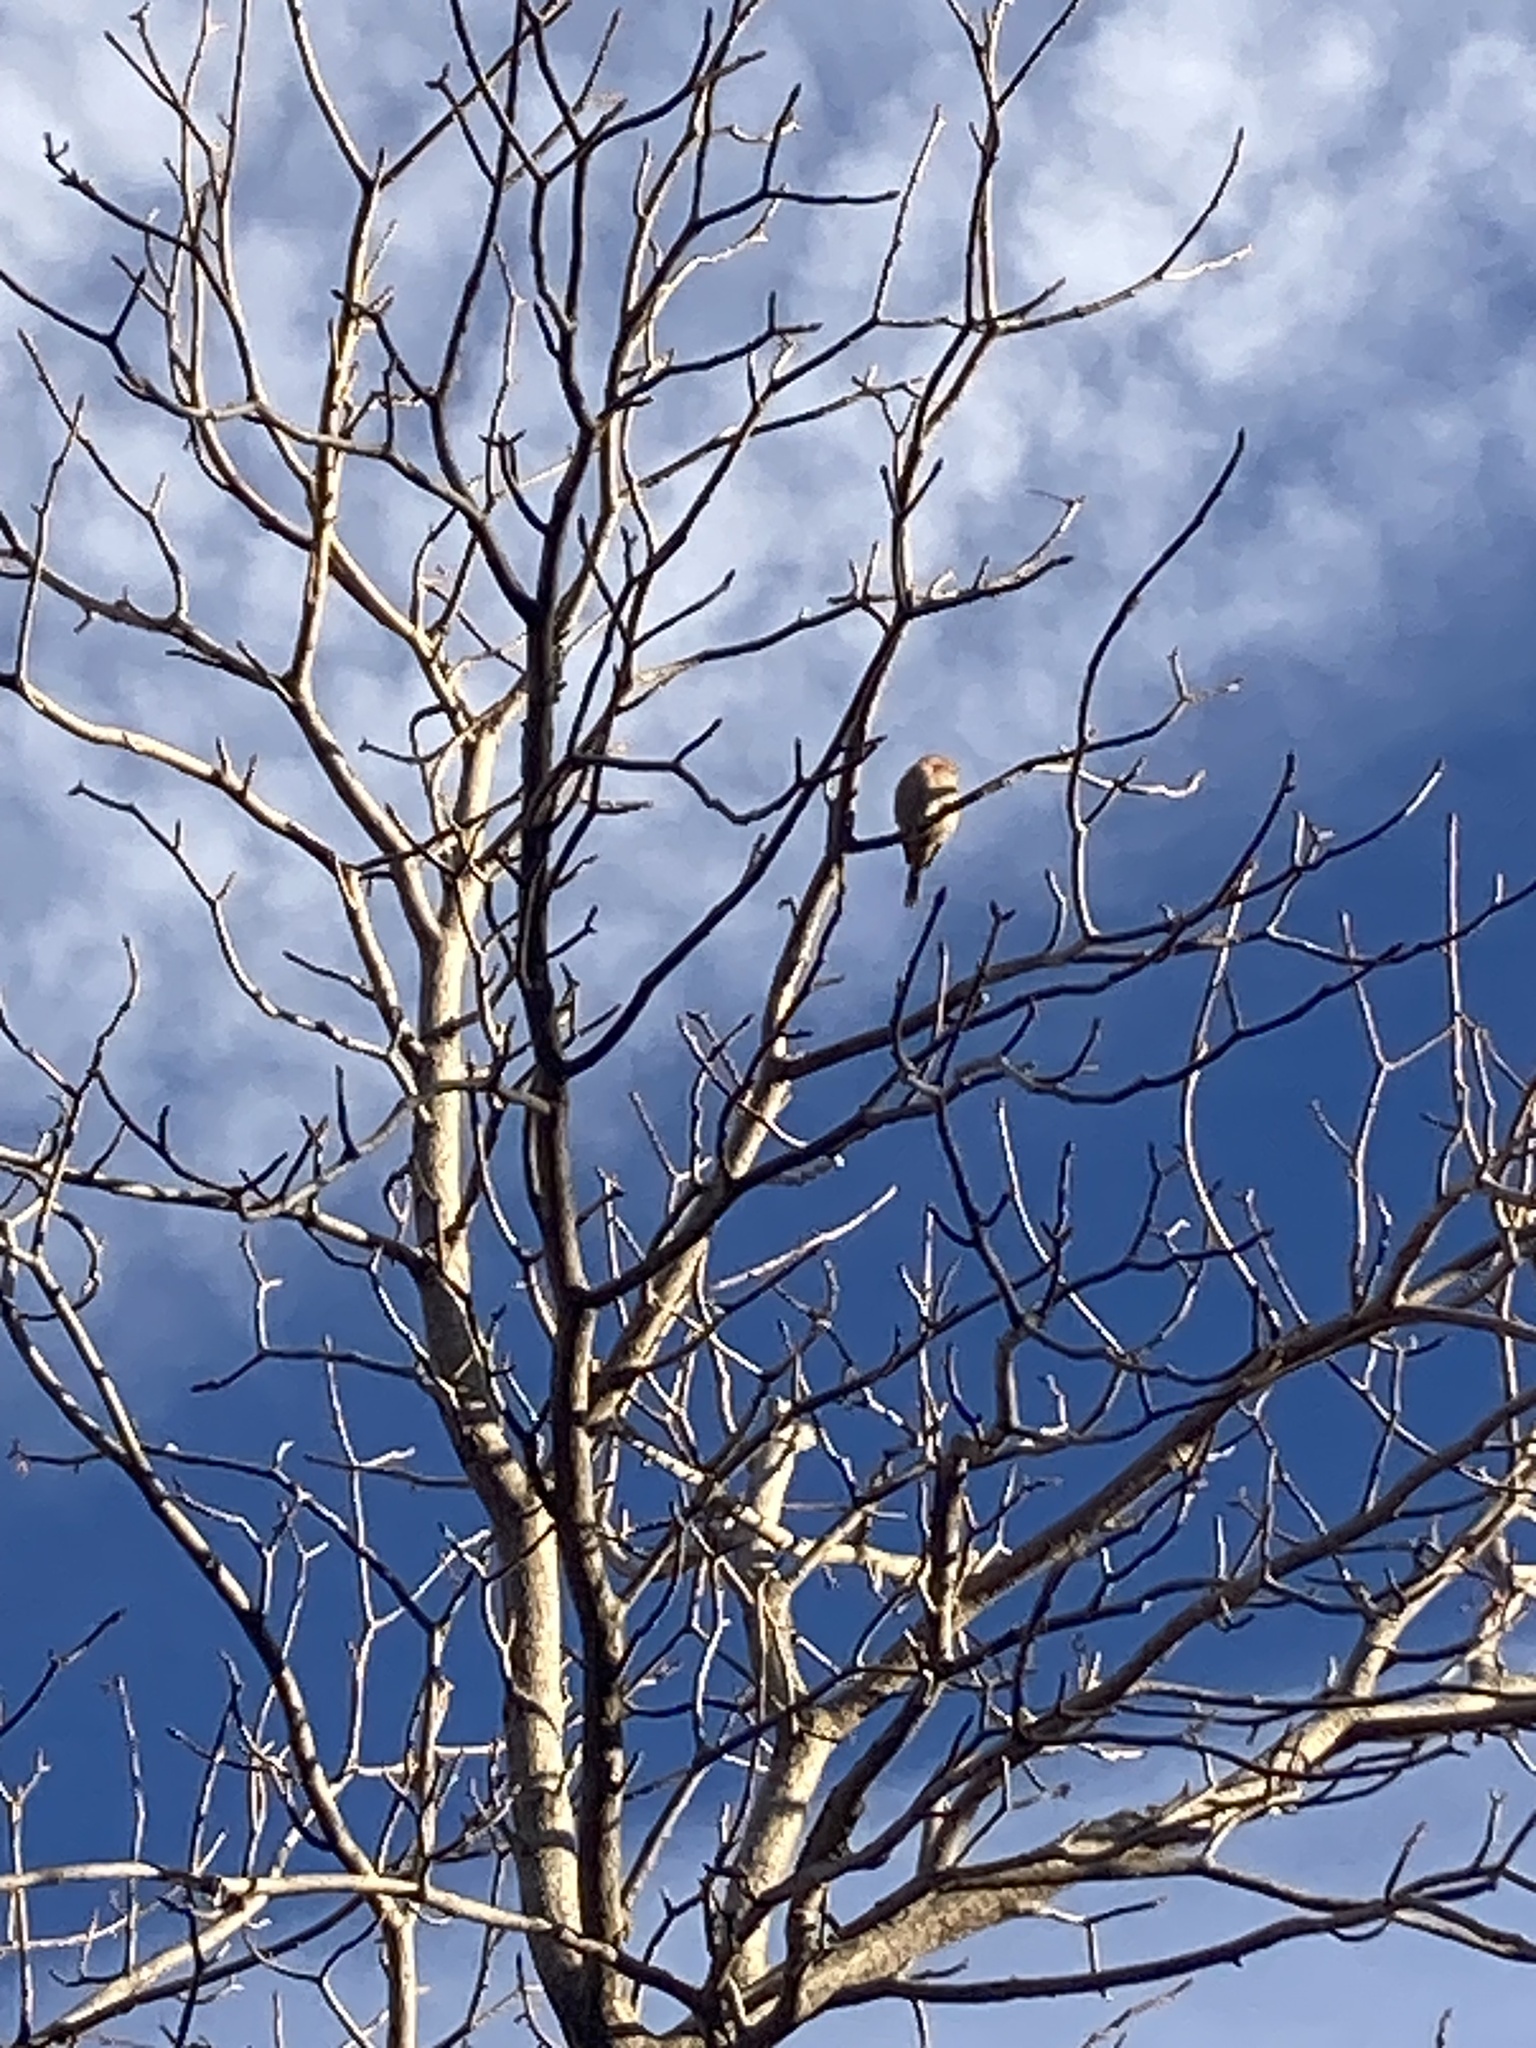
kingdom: Animalia
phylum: Chordata
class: Aves
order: Passeriformes
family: Fringillidae
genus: Haemorhous
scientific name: Haemorhous mexicanus
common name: House finch
